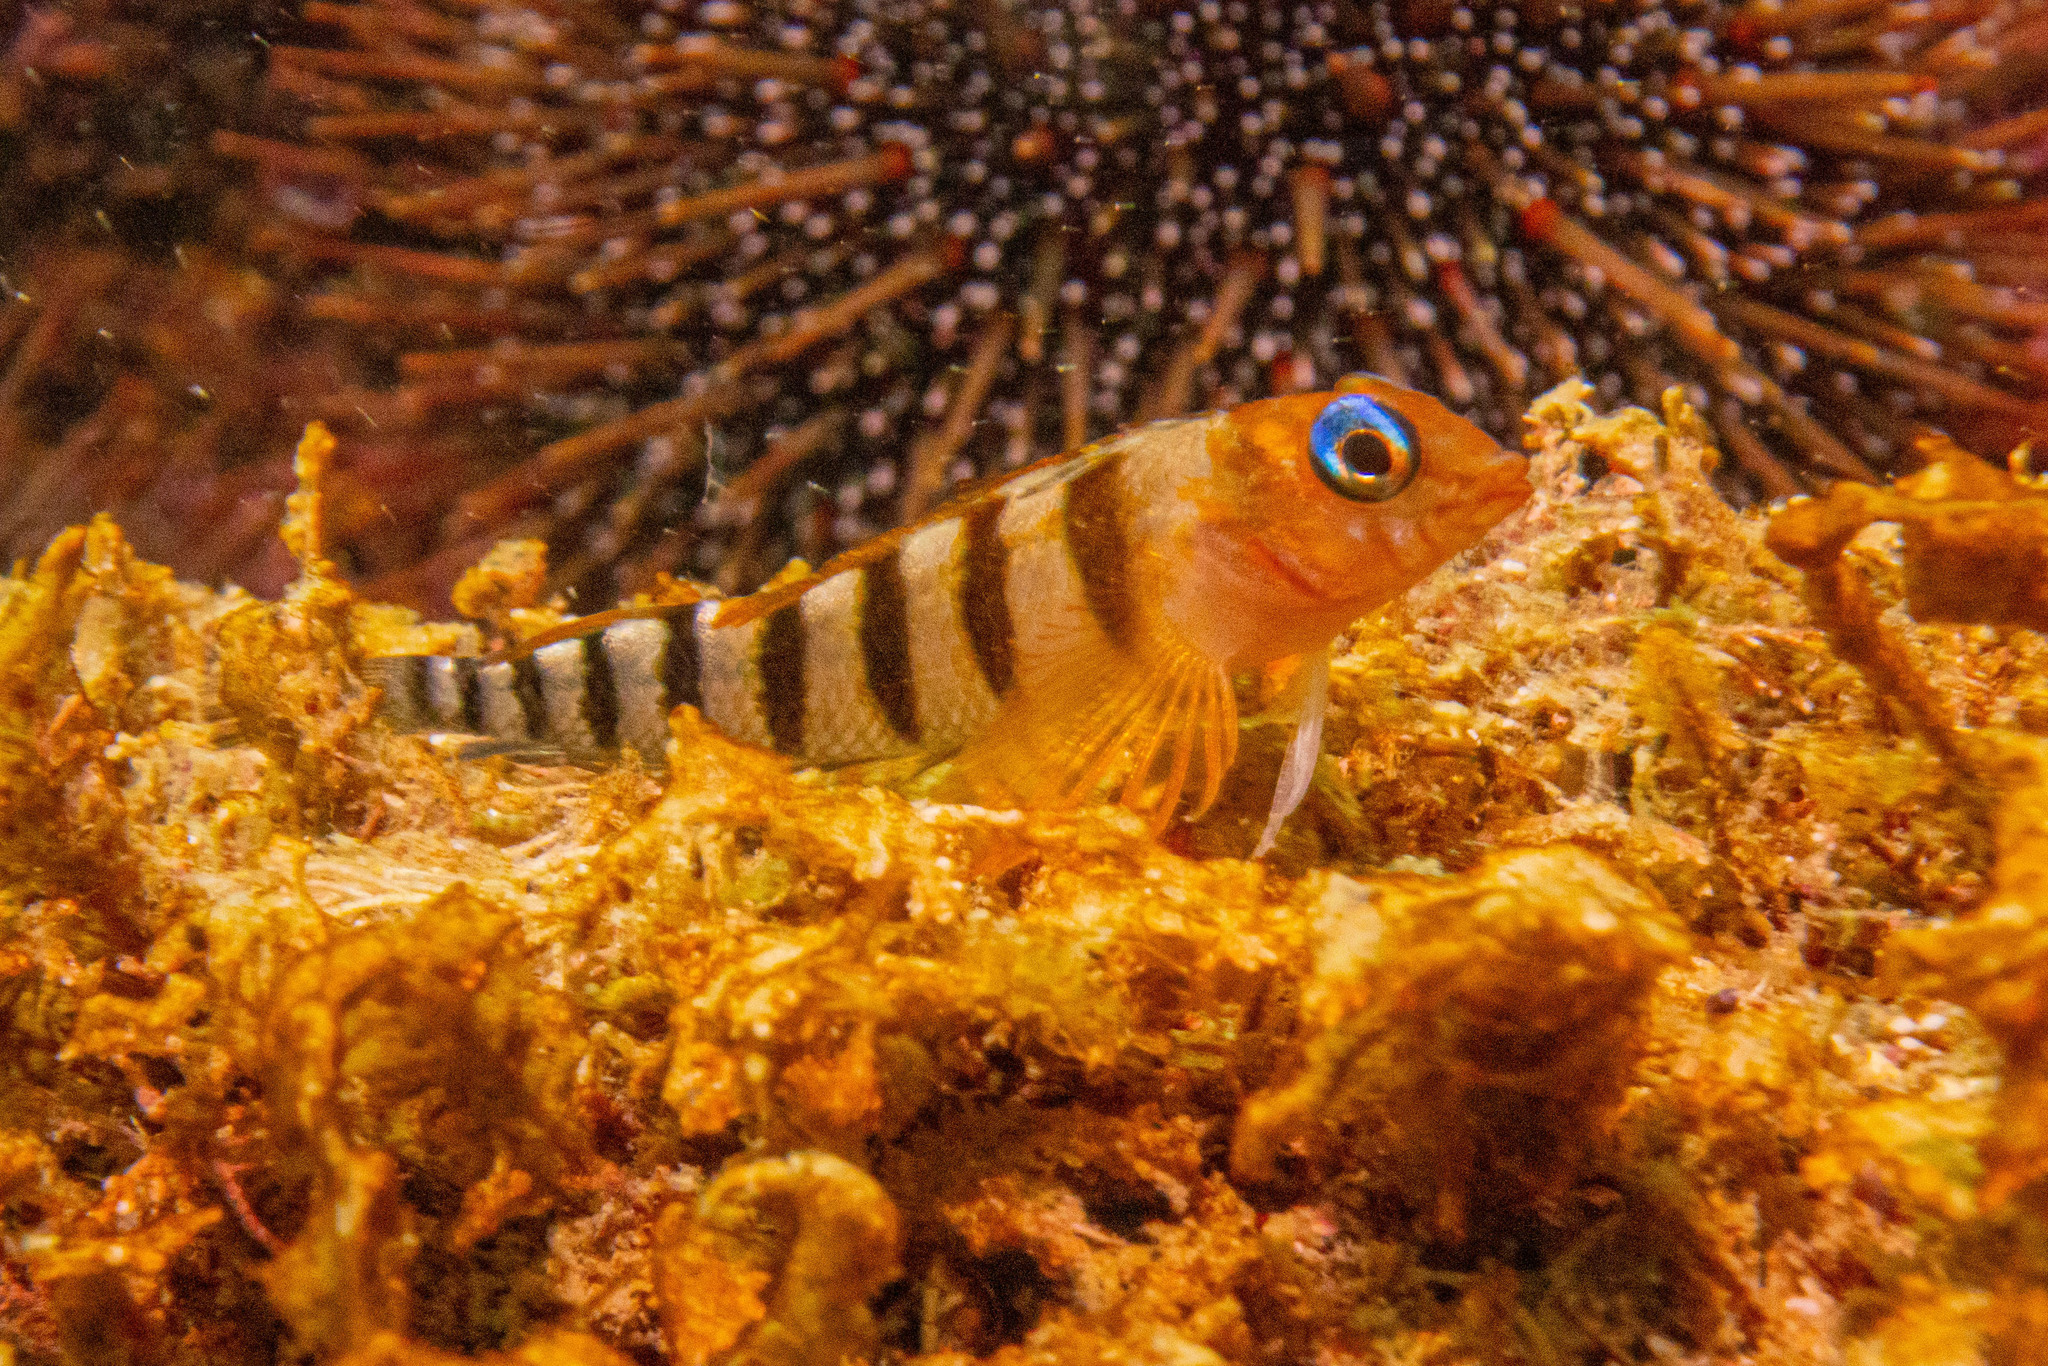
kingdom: Animalia
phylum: Chordata
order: Perciformes
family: Tripterygiidae
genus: Notoclinops
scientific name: Notoclinops segmentatus
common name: Blue-eyed triplefin
